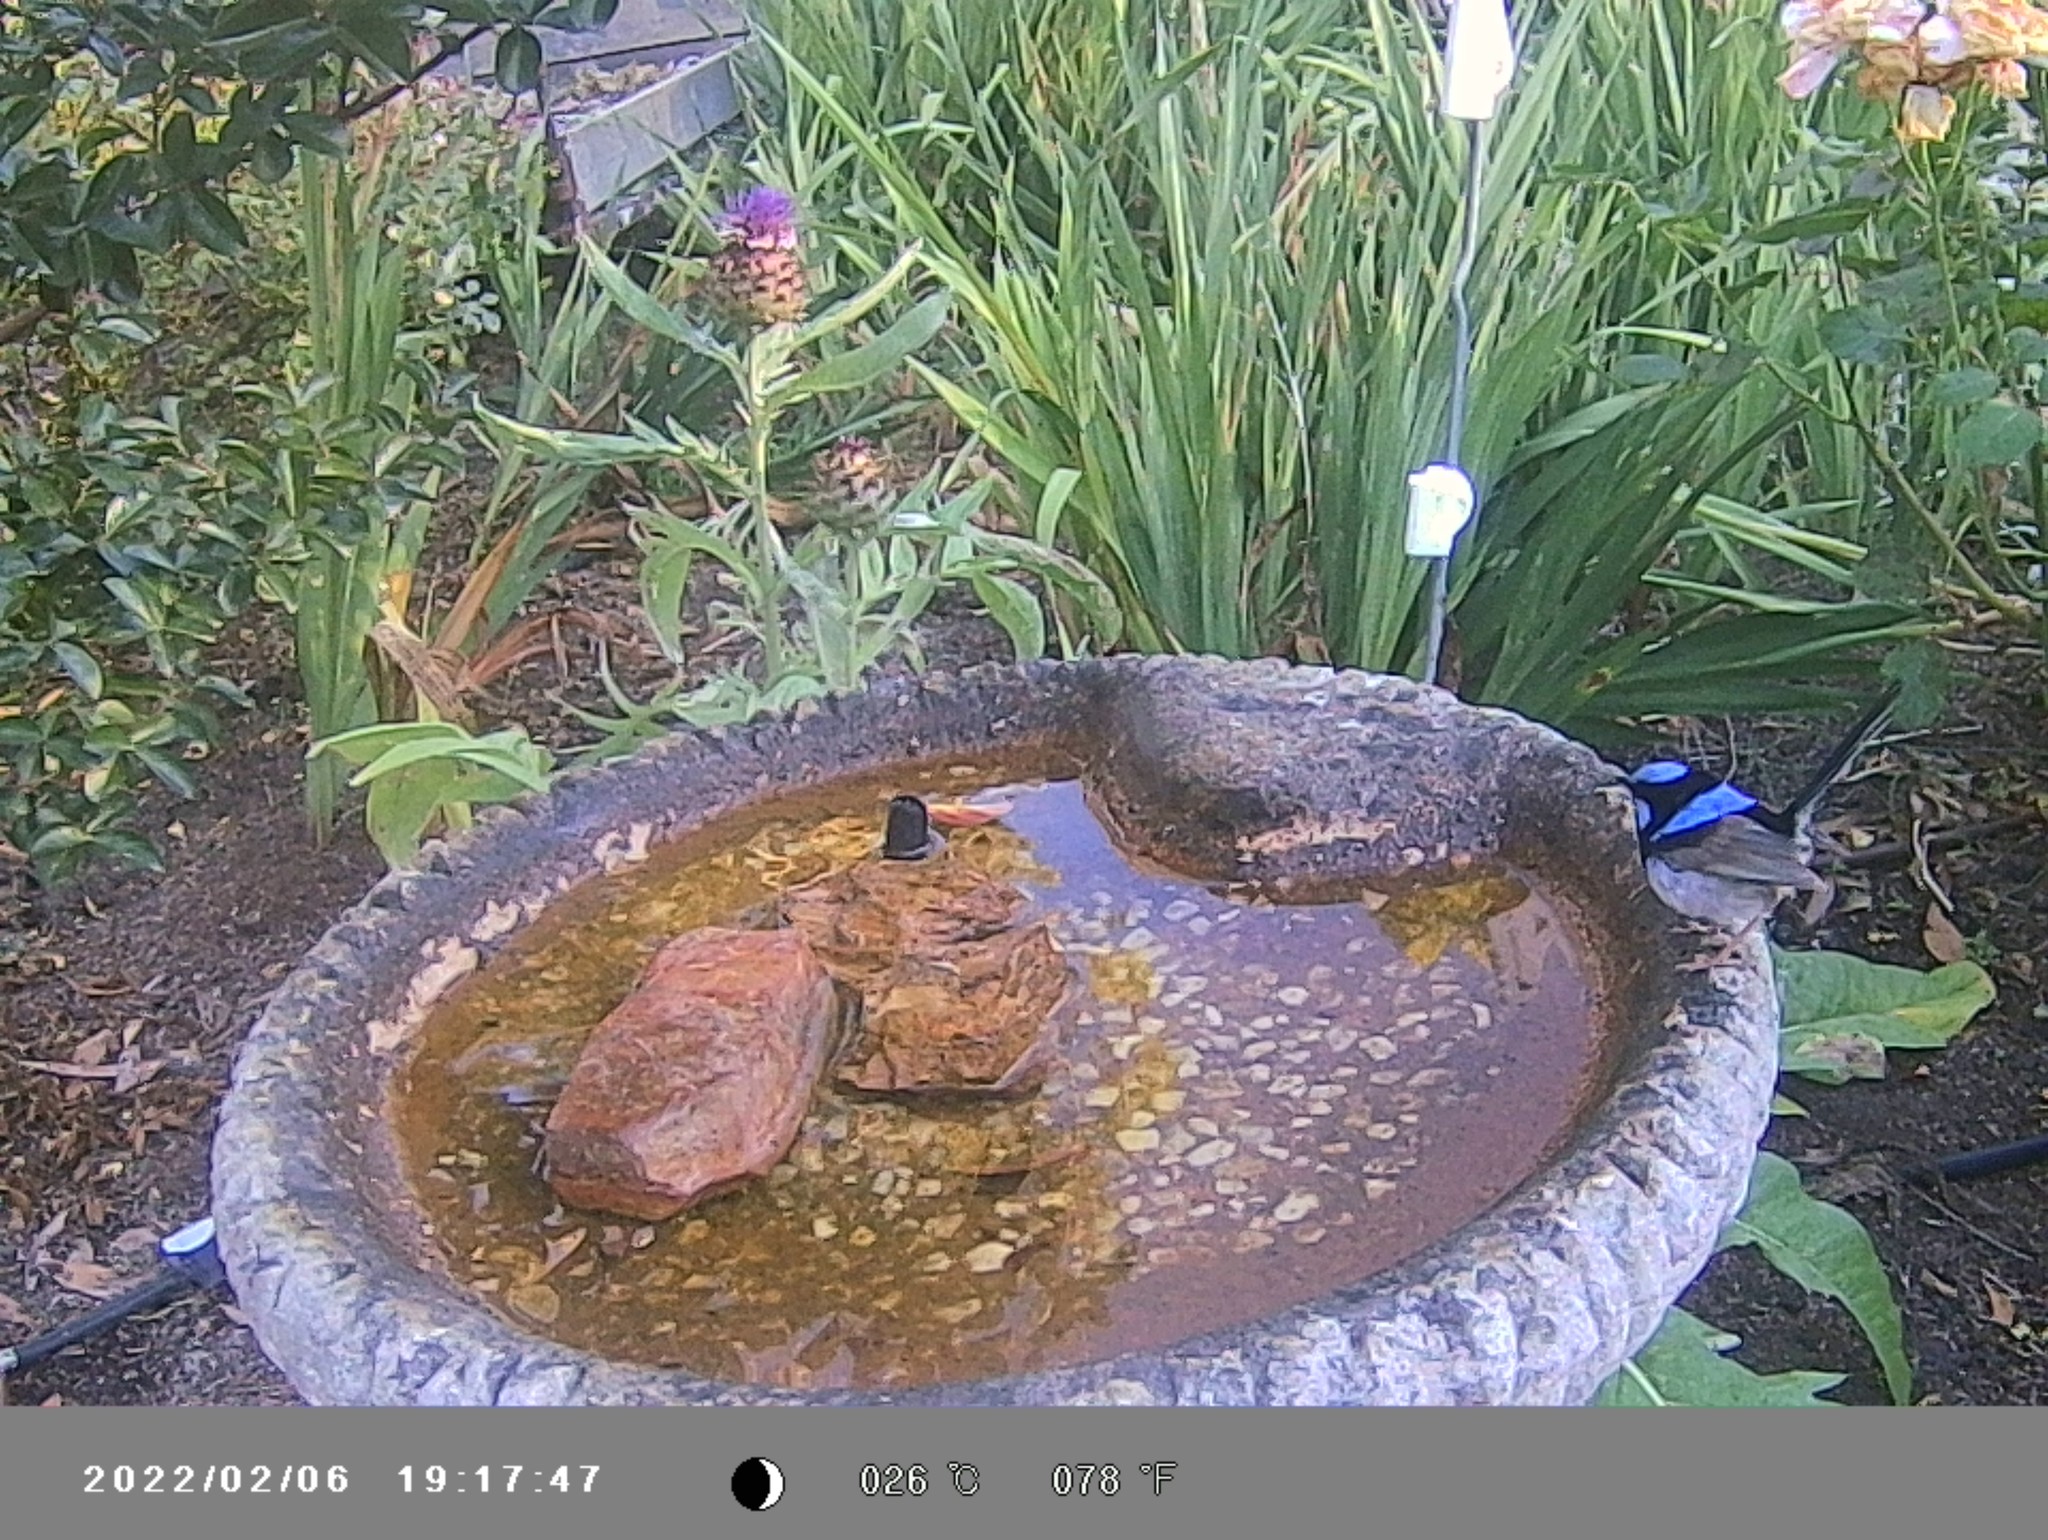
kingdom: Animalia
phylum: Chordata
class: Aves
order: Passeriformes
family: Maluridae
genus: Malurus
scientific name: Malurus cyaneus
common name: Superb fairywren
